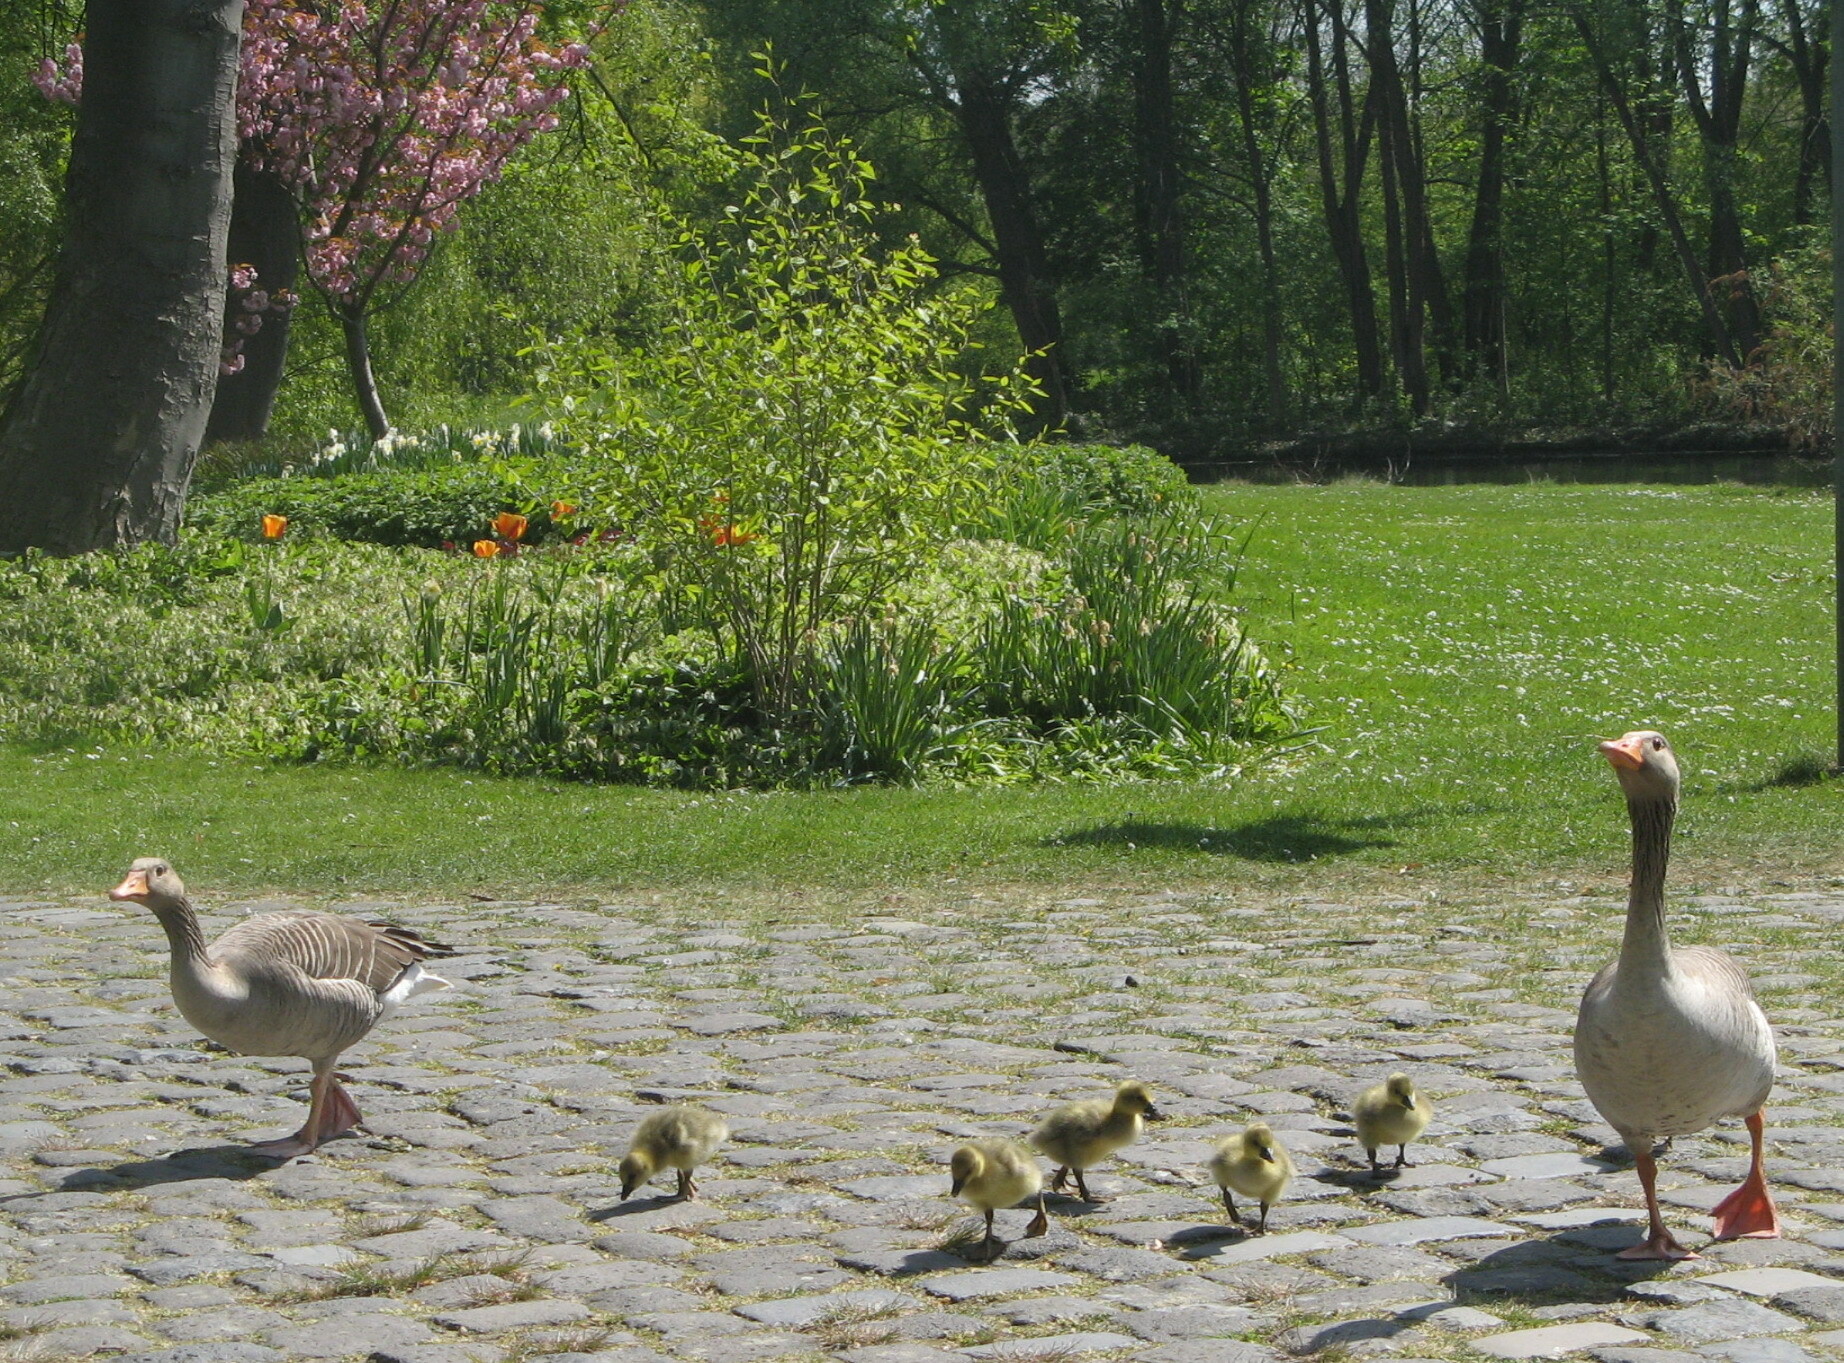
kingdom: Animalia
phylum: Chordata
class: Aves
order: Anseriformes
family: Anatidae
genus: Anser
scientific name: Anser anser
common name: Greylag goose
